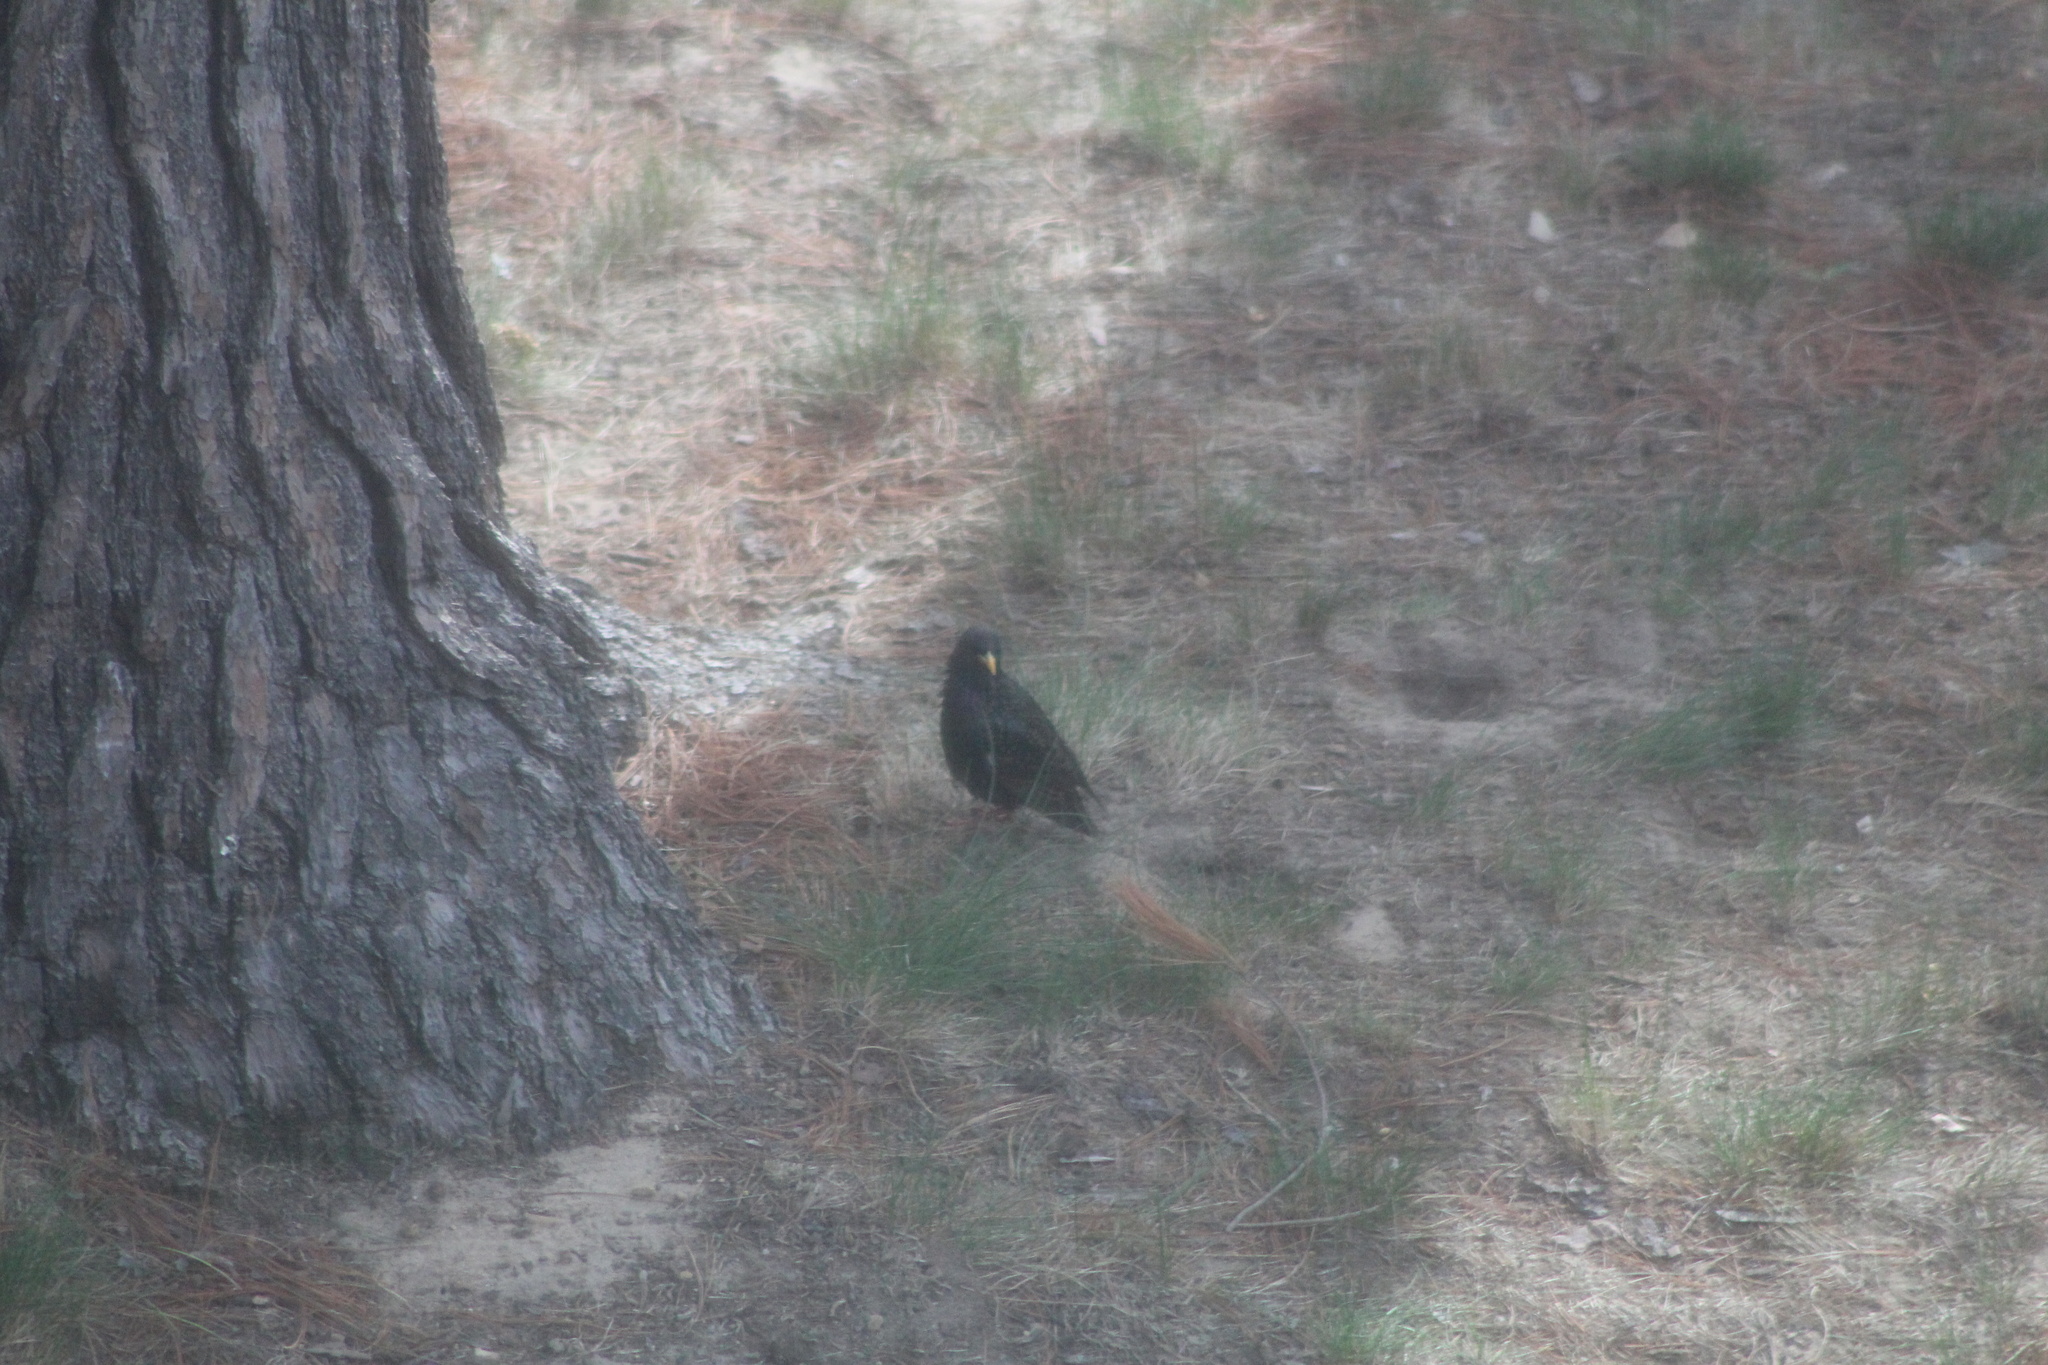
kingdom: Animalia
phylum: Chordata
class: Aves
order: Passeriformes
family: Sturnidae
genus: Sturnus
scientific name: Sturnus vulgaris
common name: Common starling
